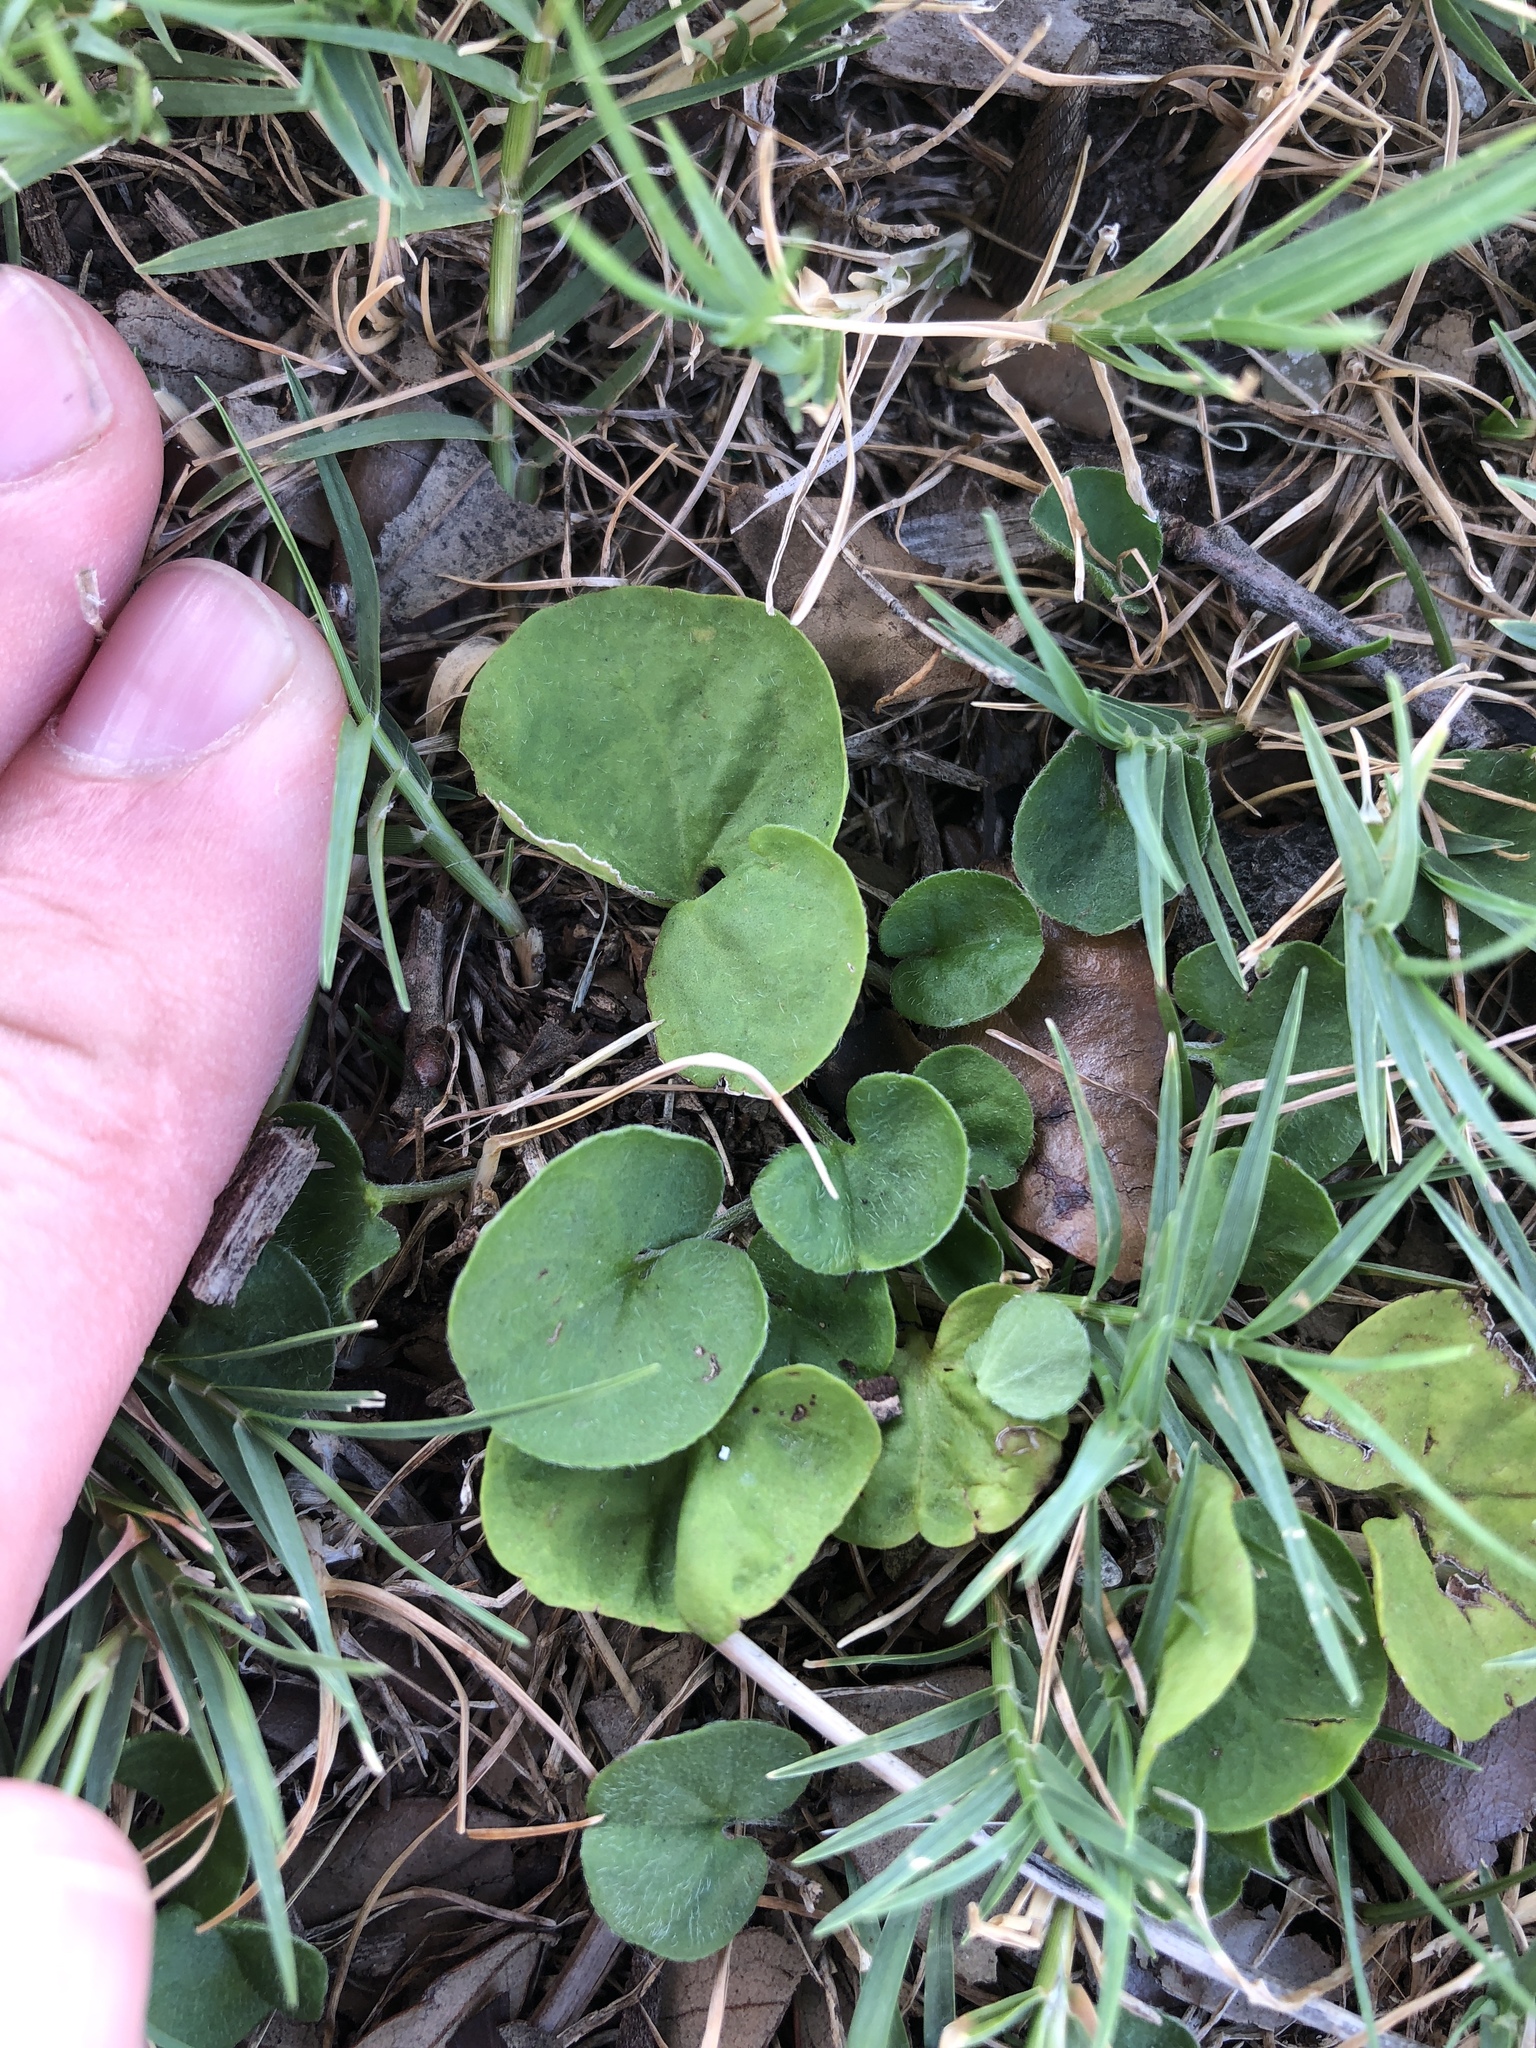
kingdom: Plantae
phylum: Tracheophyta
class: Magnoliopsida
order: Solanales
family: Convolvulaceae
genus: Dichondra
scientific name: Dichondra carolinensis
